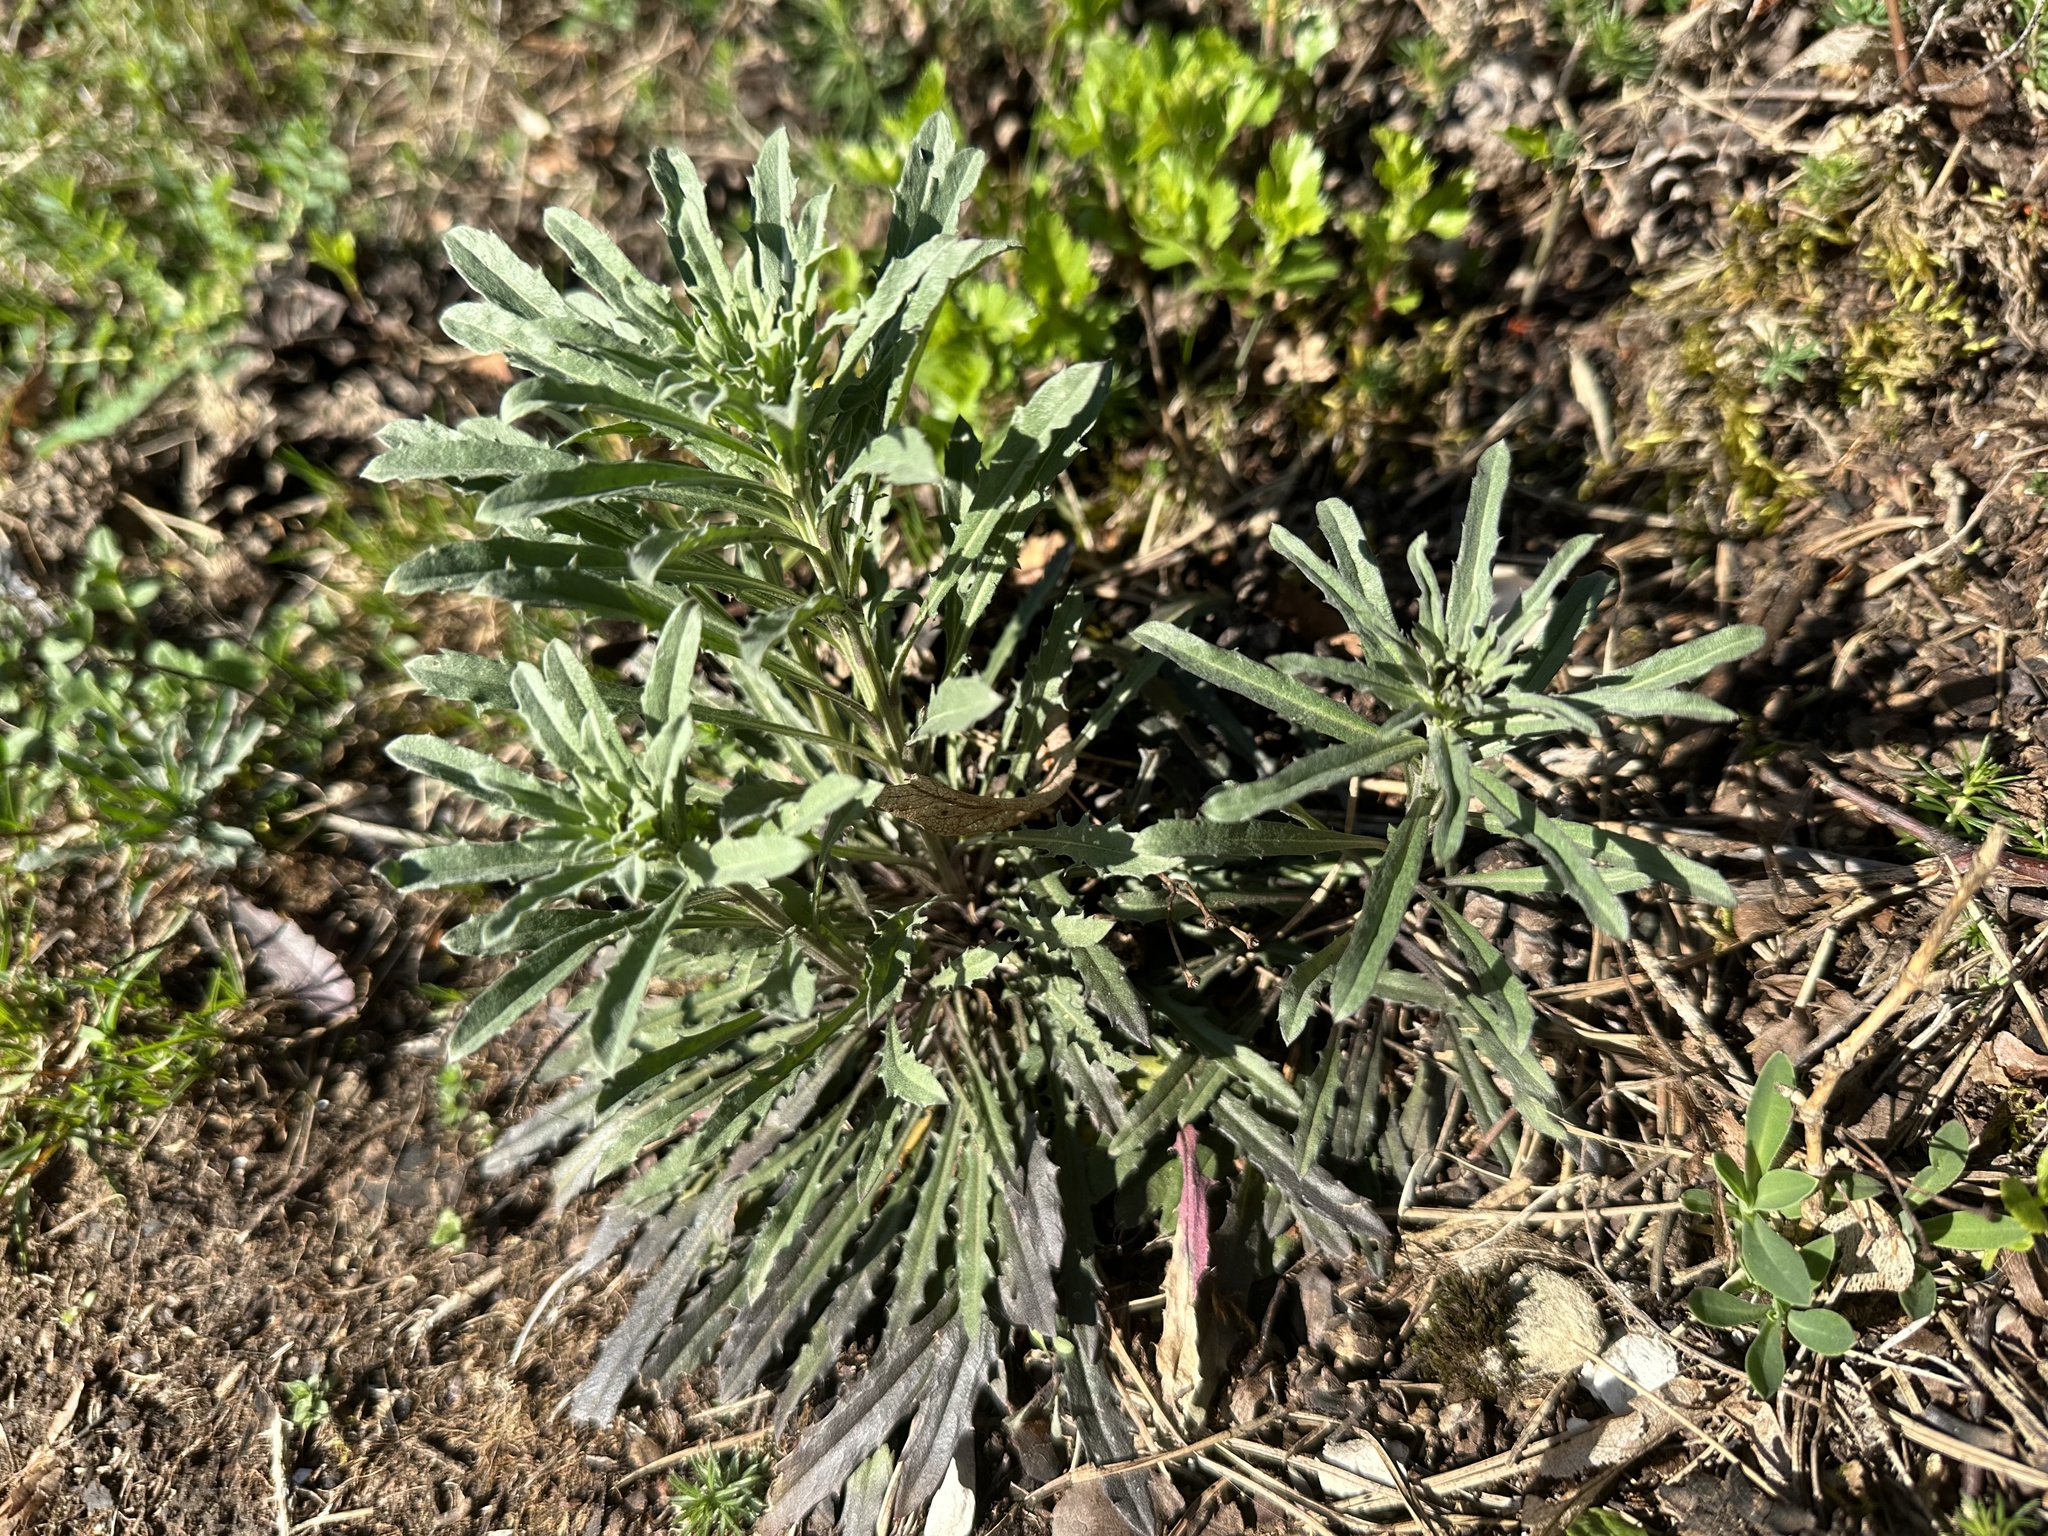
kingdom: Plantae
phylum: Tracheophyta
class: Magnoliopsida
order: Brassicales
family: Brassicaceae
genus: Erysimum
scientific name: Erysimum crepidifolium
